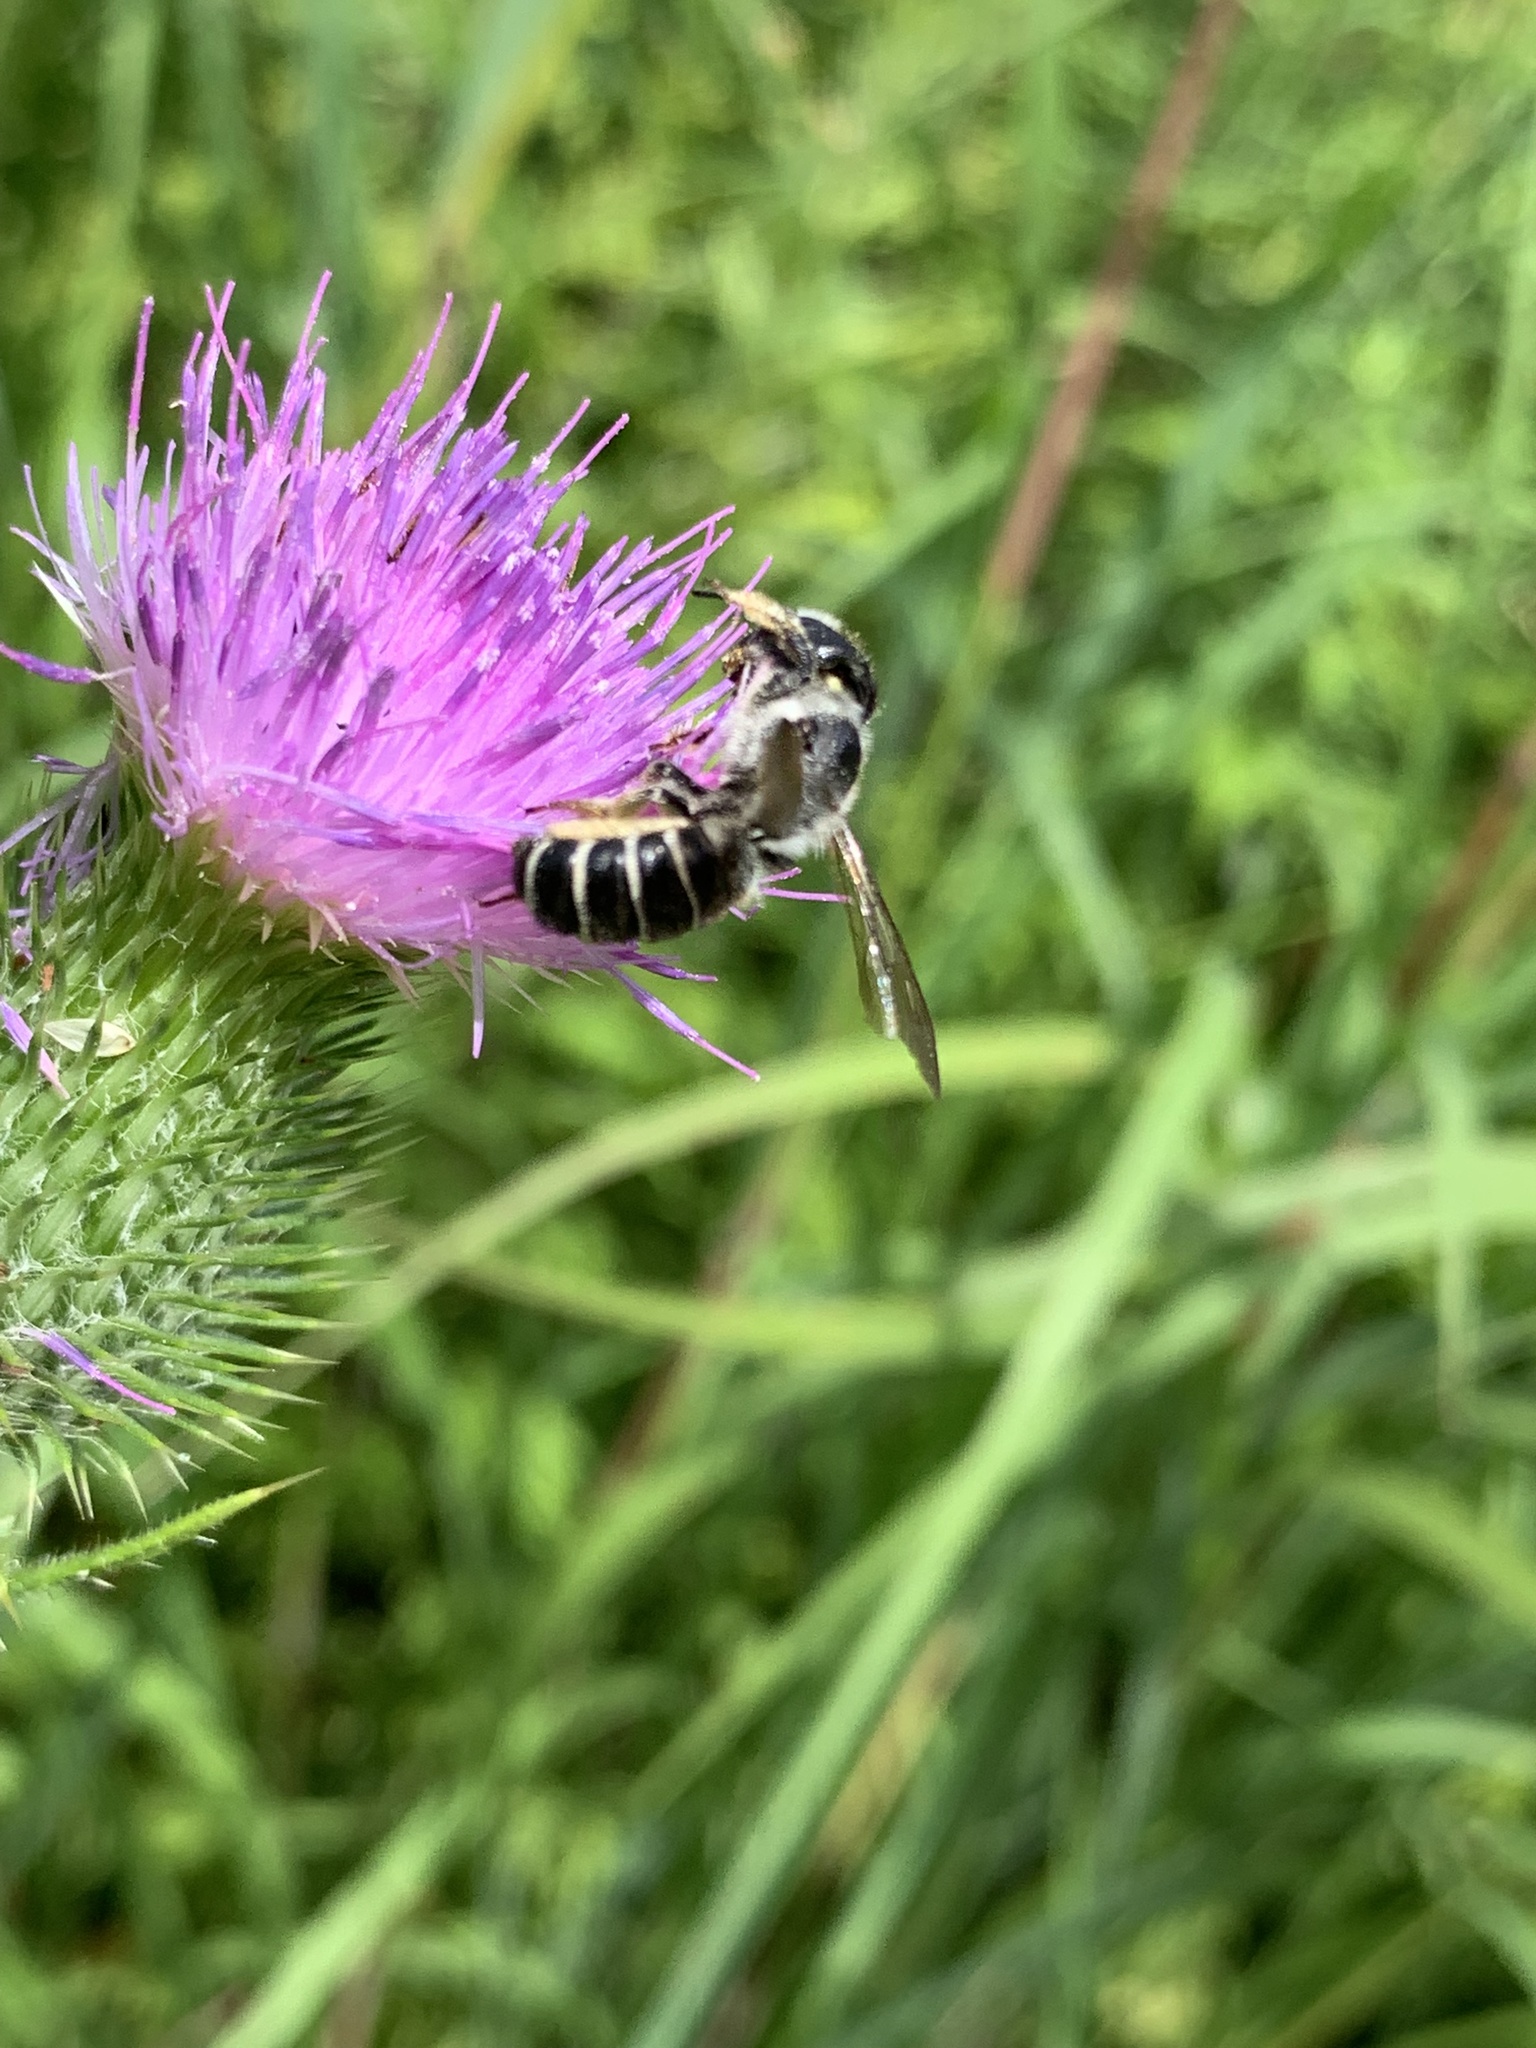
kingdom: Animalia
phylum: Arthropoda
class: Insecta
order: Hymenoptera
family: Megachilidae
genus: Megachile
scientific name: Megachile pugnata
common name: Pugnacious leafcutter bee
